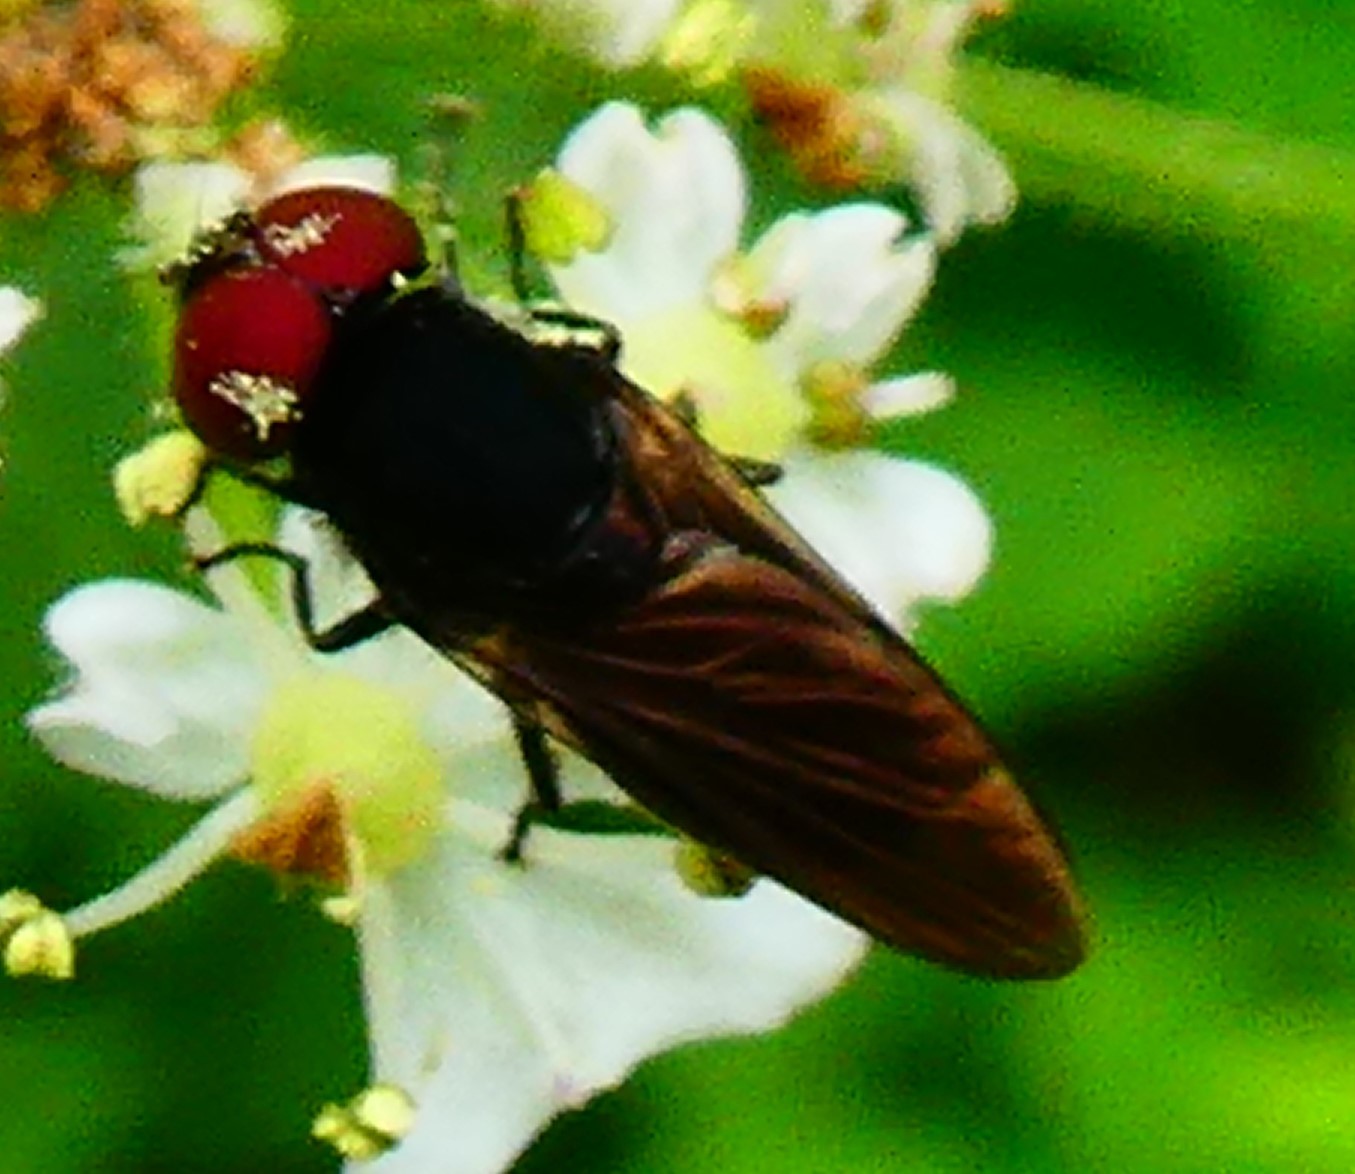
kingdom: Animalia
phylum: Arthropoda
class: Insecta
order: Diptera
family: Syrphidae
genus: Chrysogaster
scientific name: Chrysogaster solstitialis
